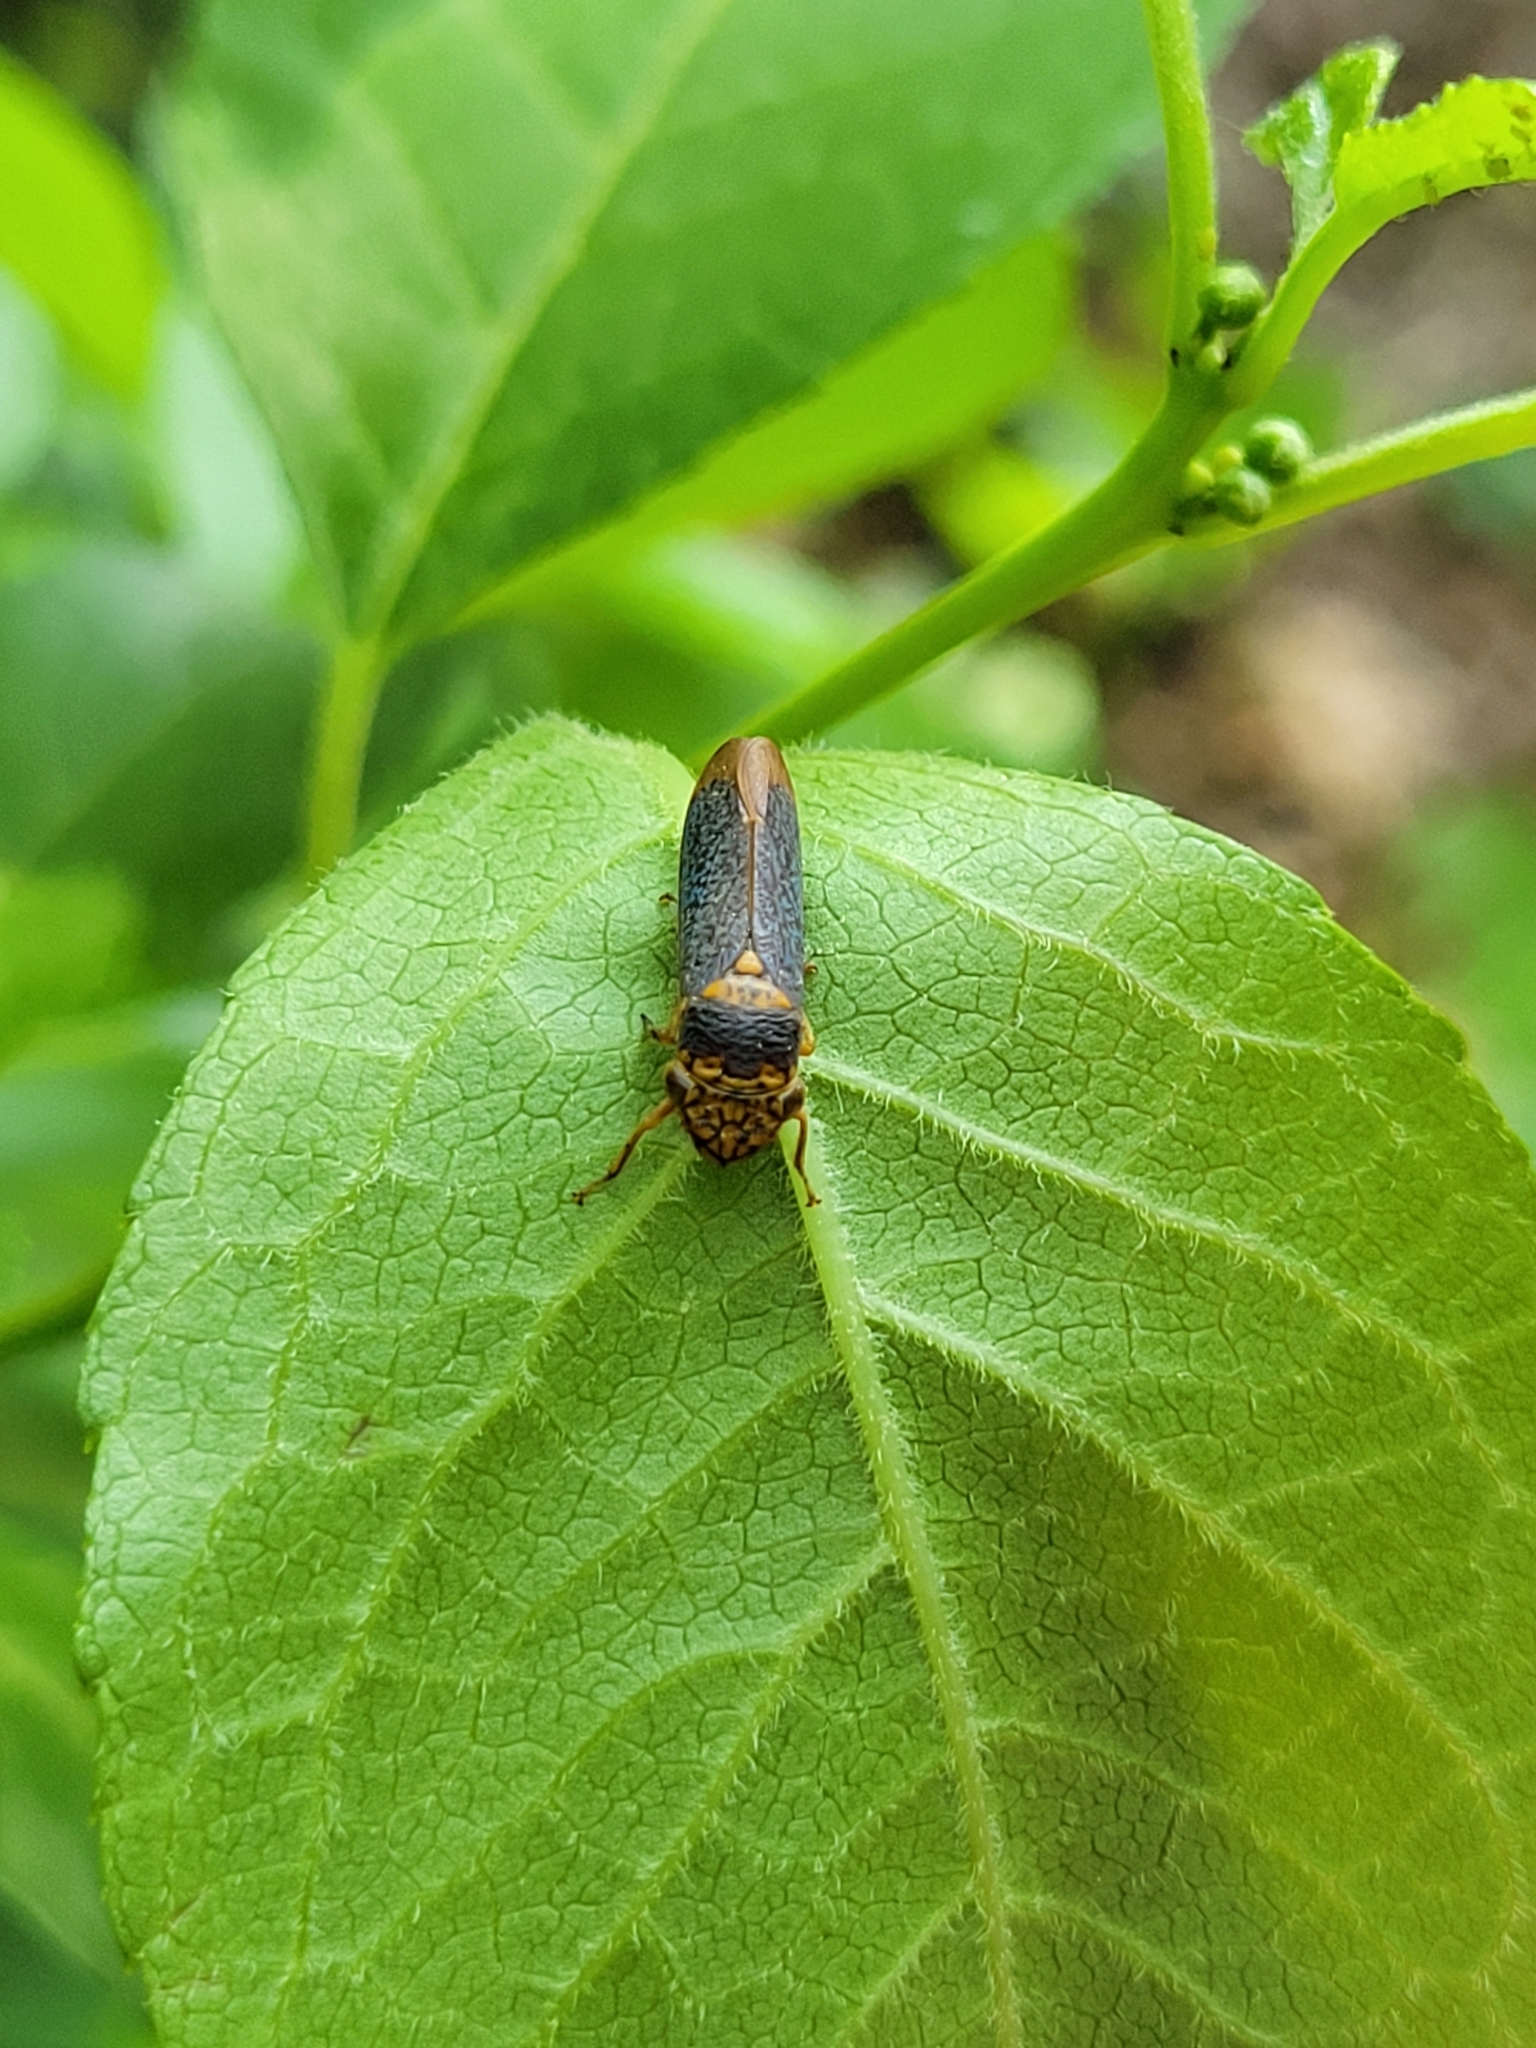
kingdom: Animalia
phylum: Arthropoda
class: Insecta
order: Hemiptera
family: Cicadellidae
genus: Oncometopia
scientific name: Oncometopia orbona
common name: Broad-headed sharpshooter
